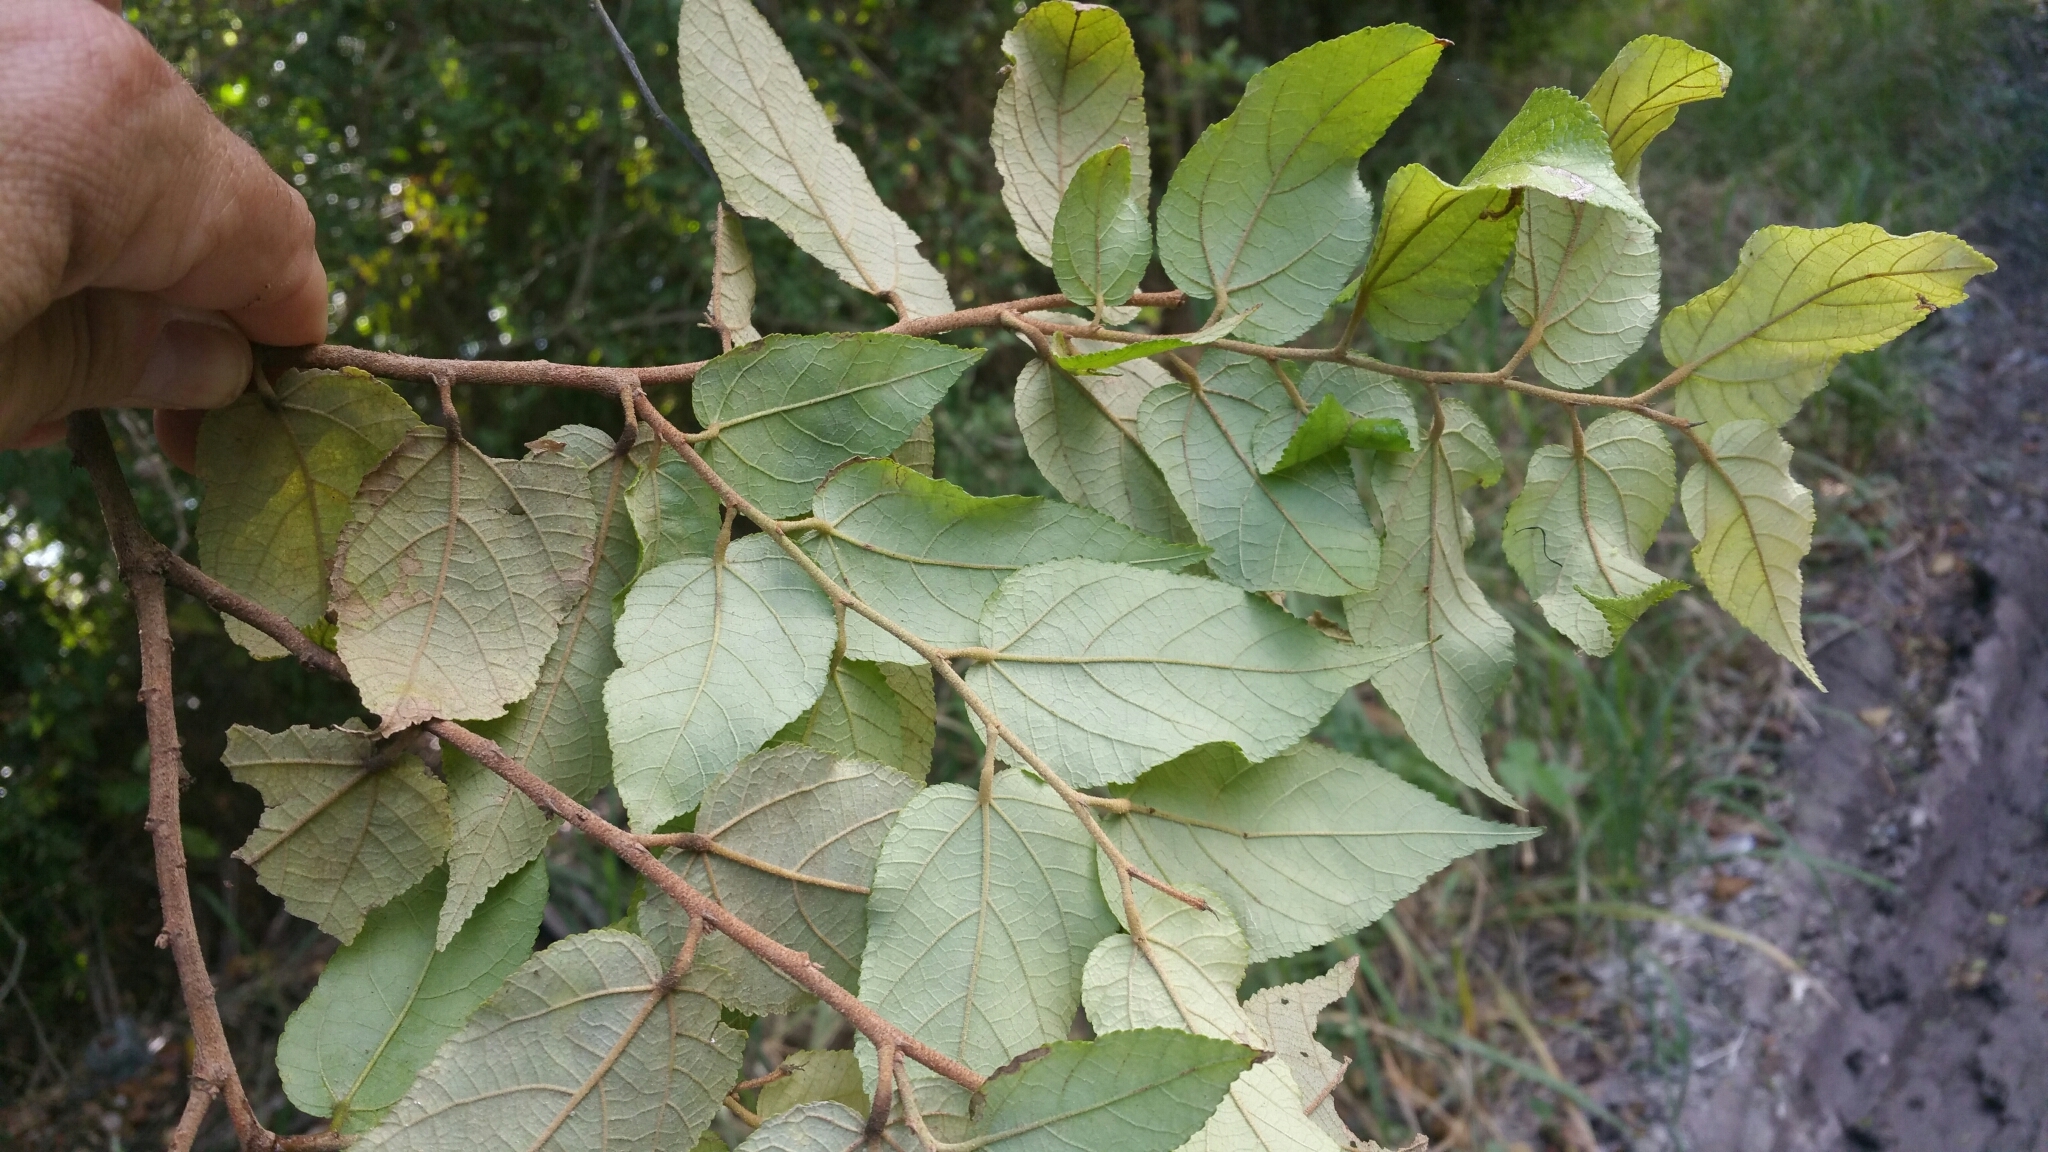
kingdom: Plantae
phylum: Tracheophyta
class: Magnoliopsida
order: Malvales
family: Malvaceae
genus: Guazuma
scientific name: Guazuma ulmifolia
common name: Bastard-cedar
